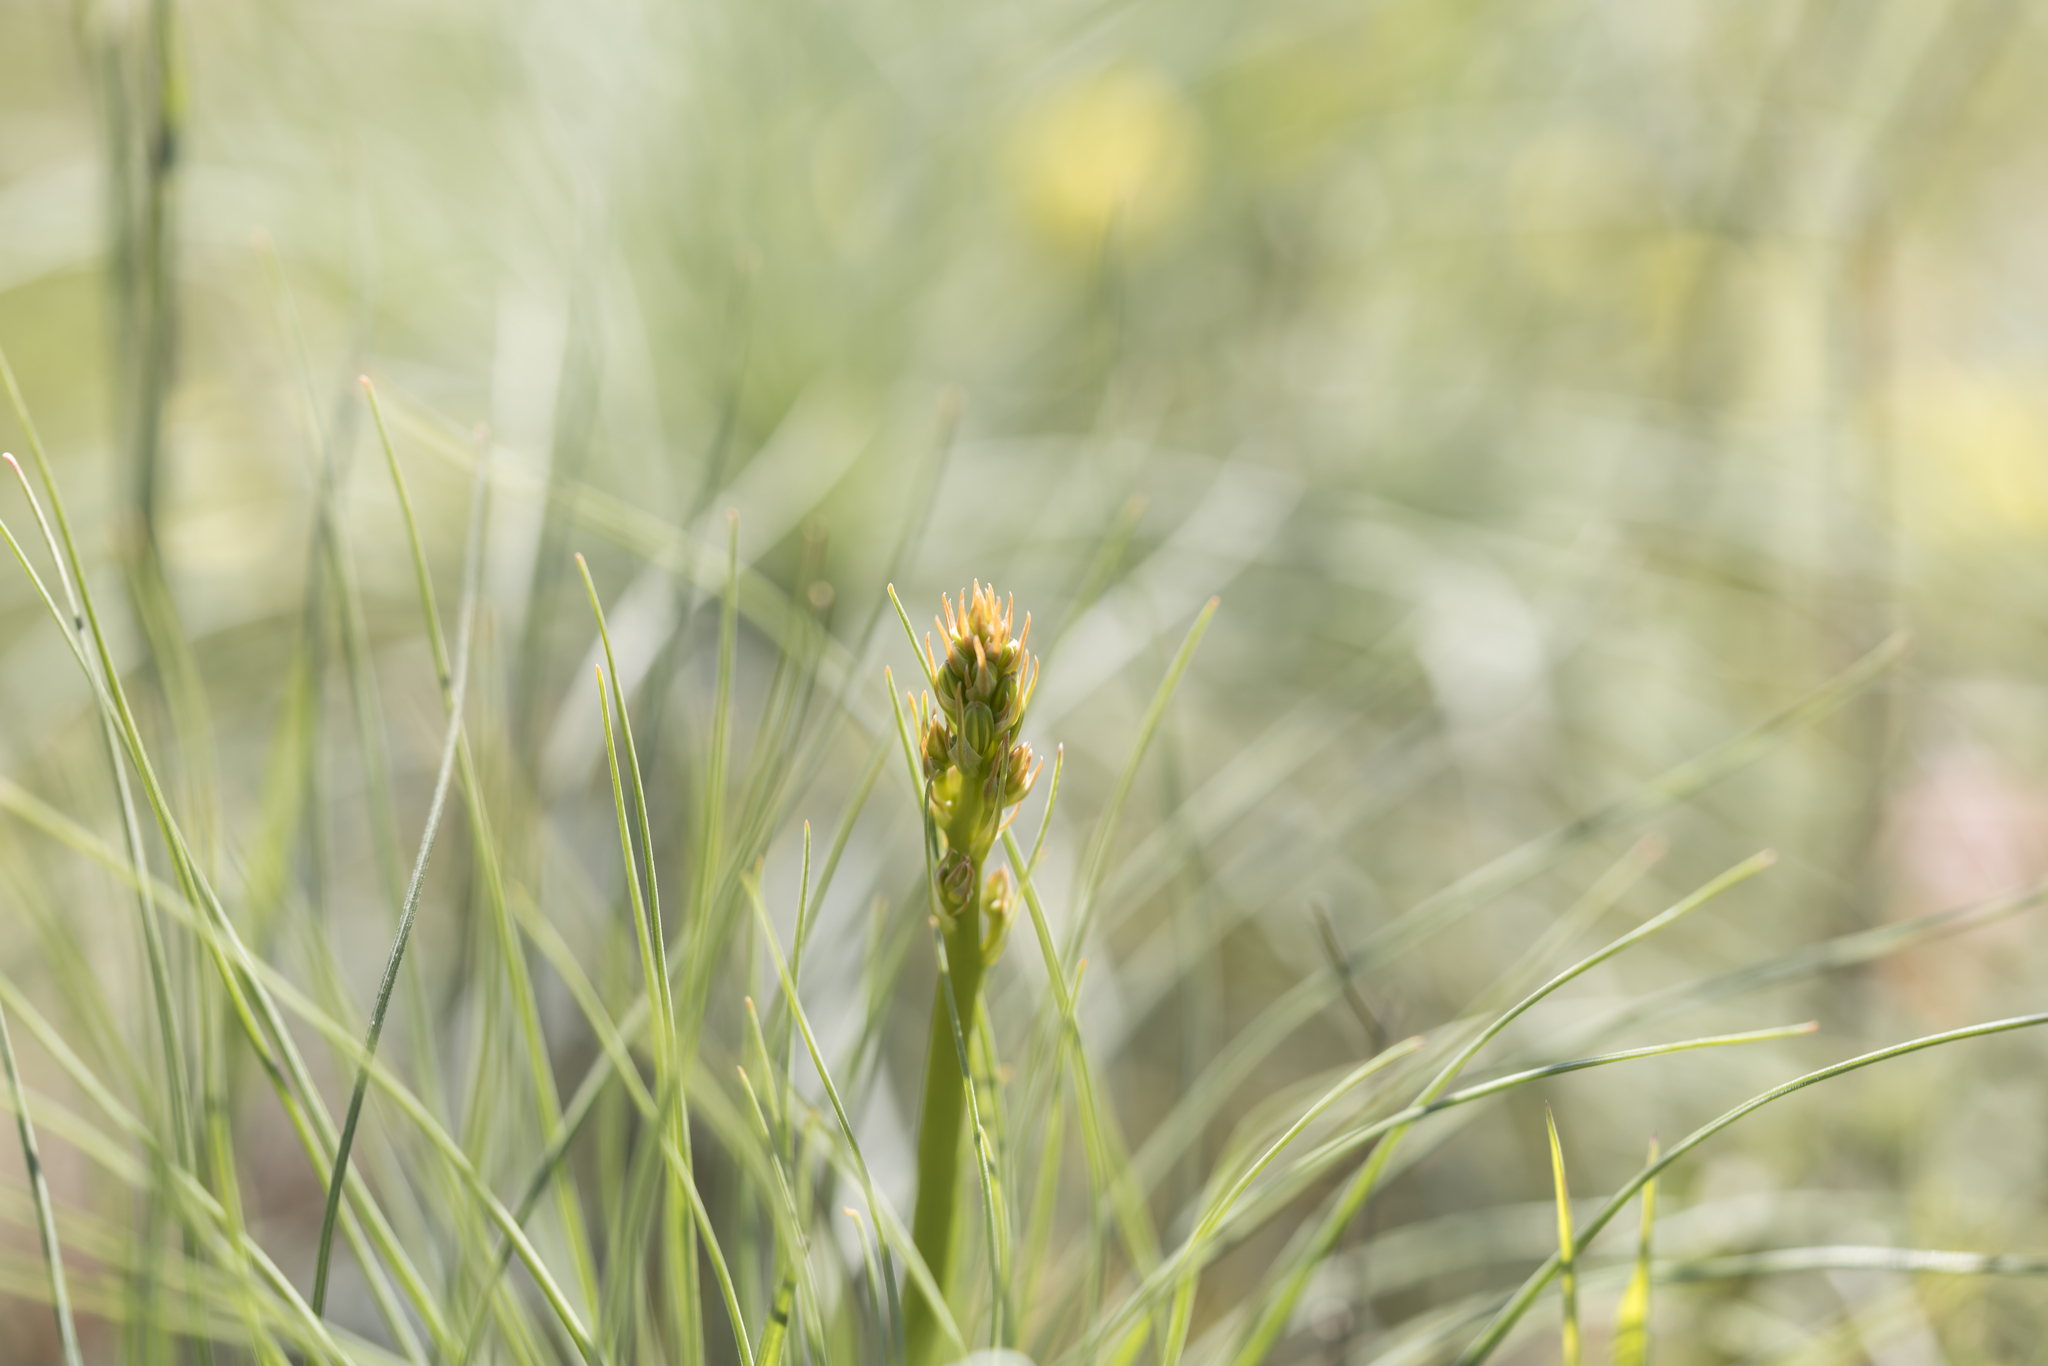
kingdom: Plantae
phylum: Tracheophyta
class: Liliopsida
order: Asparagales
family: Asphodelaceae
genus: Asphodeline
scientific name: Asphodeline liburnica
